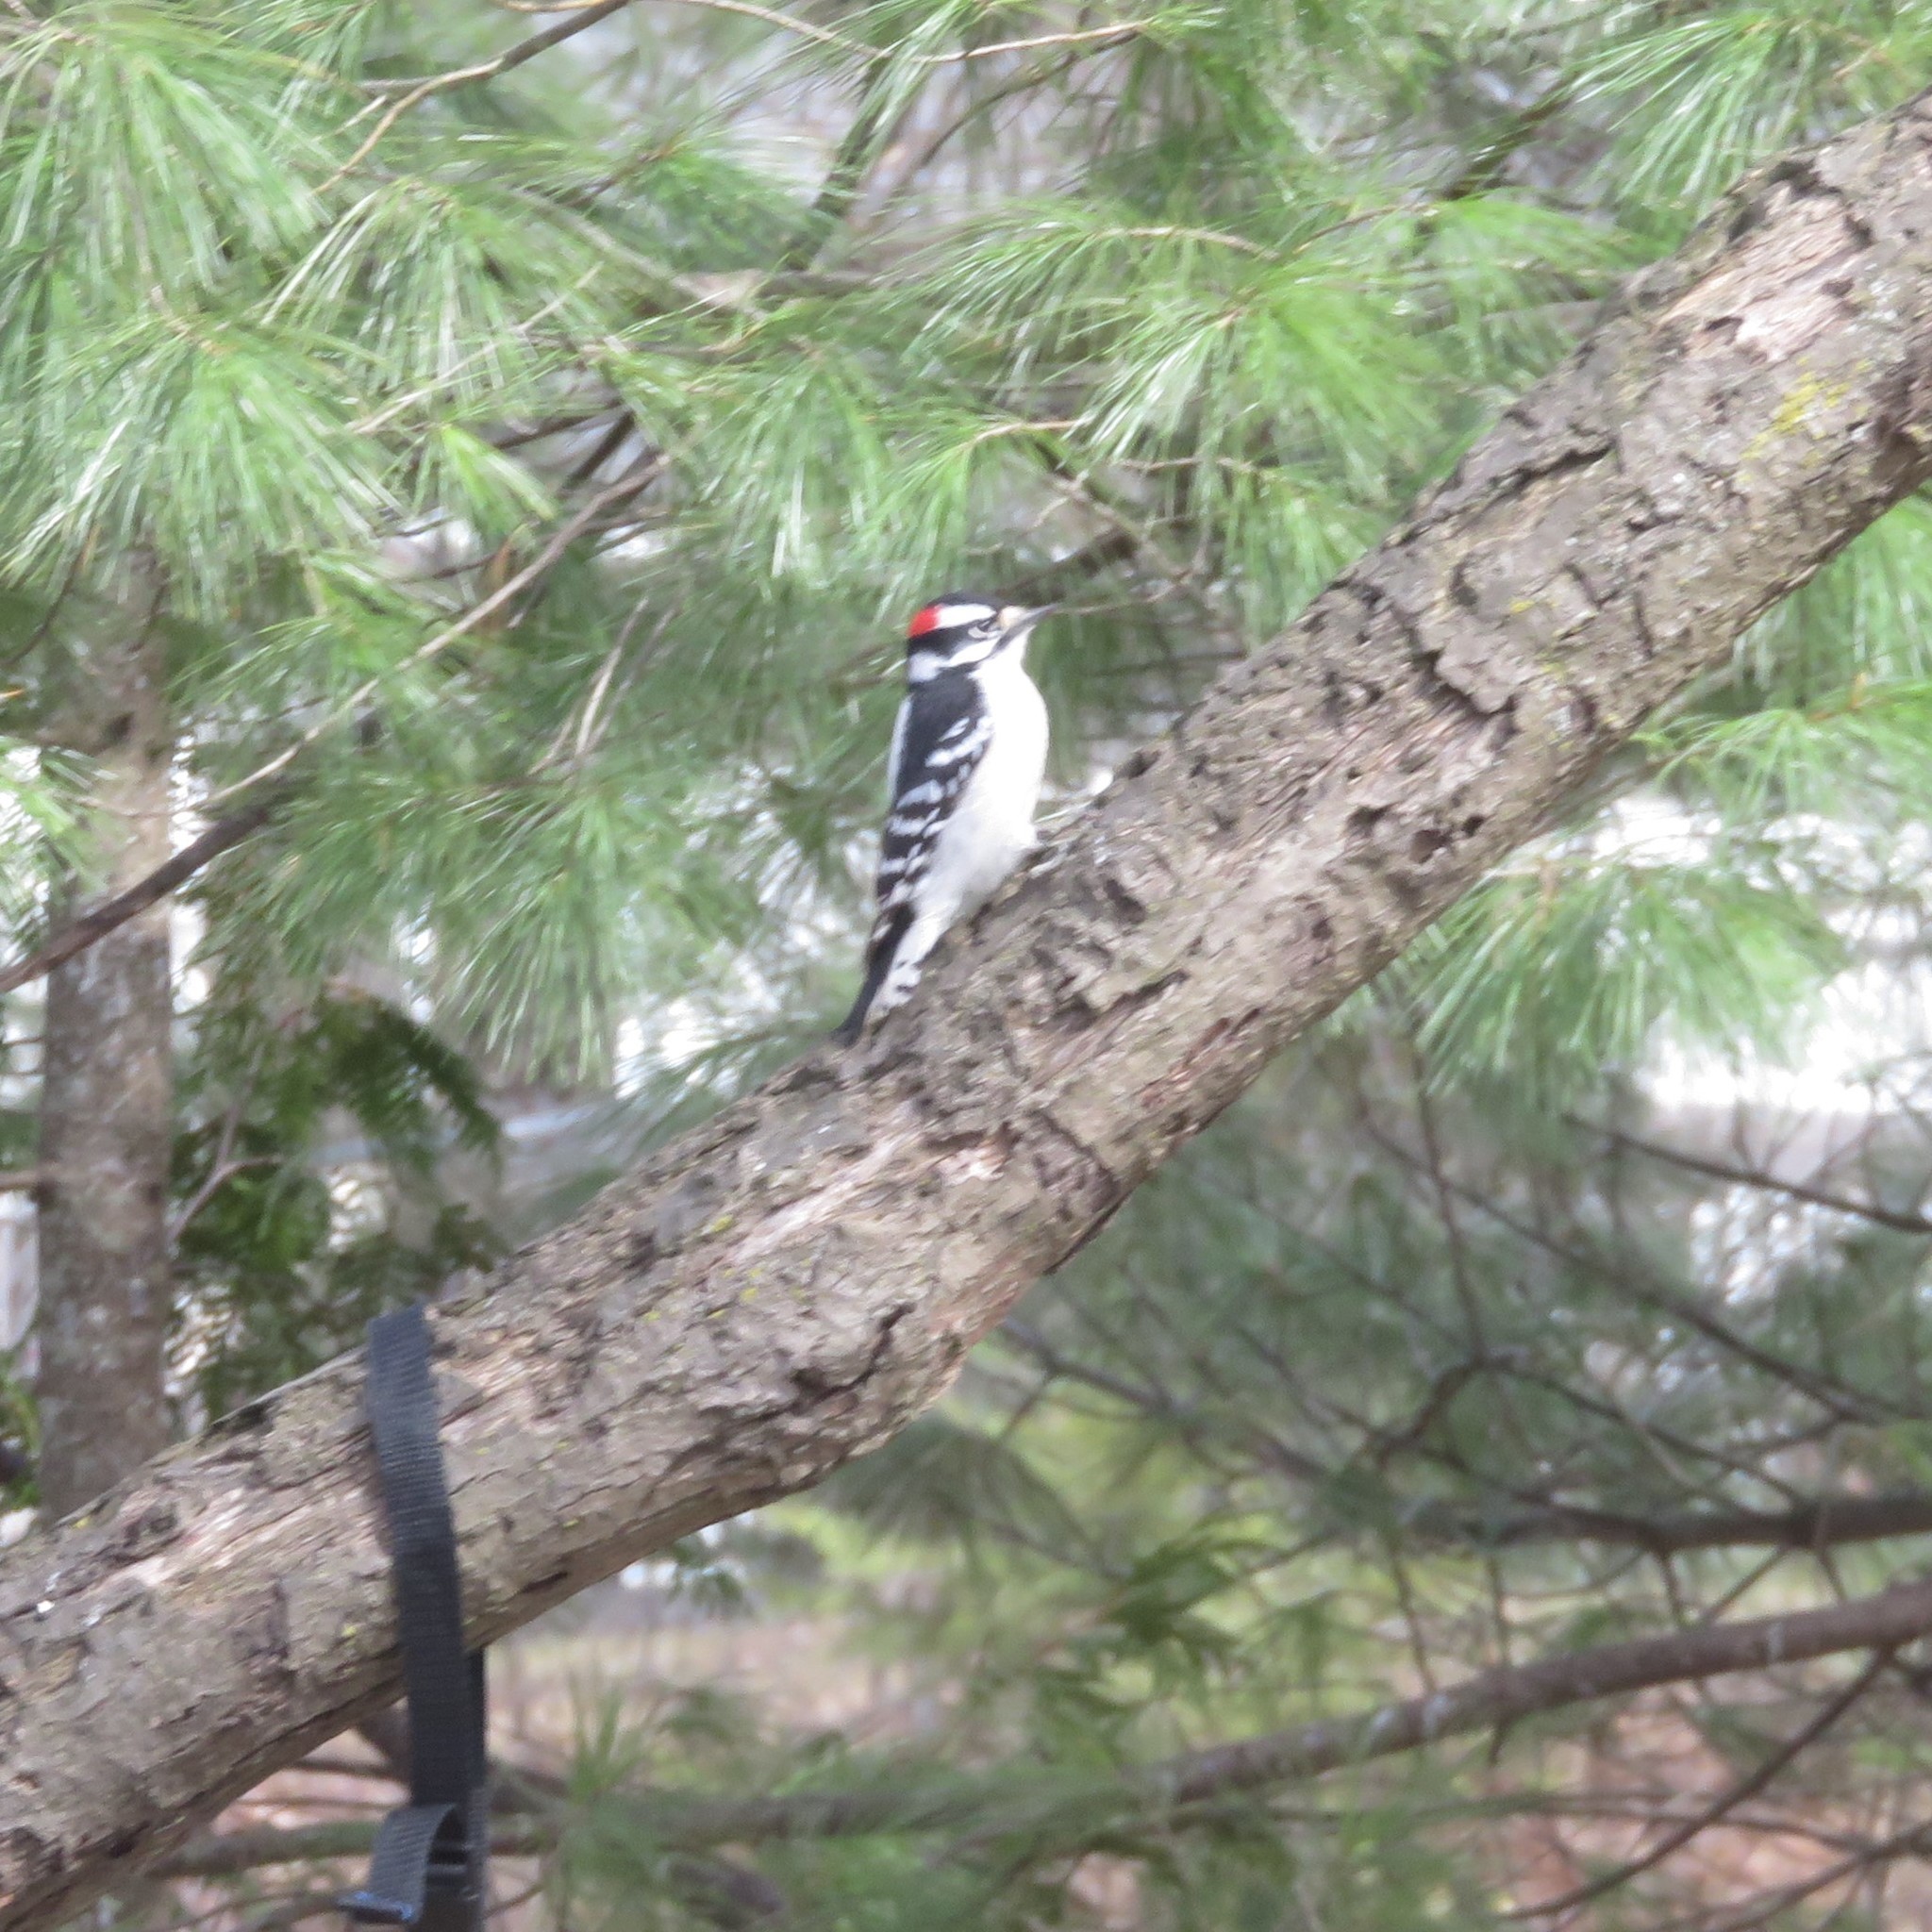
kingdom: Animalia
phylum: Chordata
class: Aves
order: Piciformes
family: Picidae
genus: Dryobates
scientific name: Dryobates pubescens
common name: Downy woodpecker
